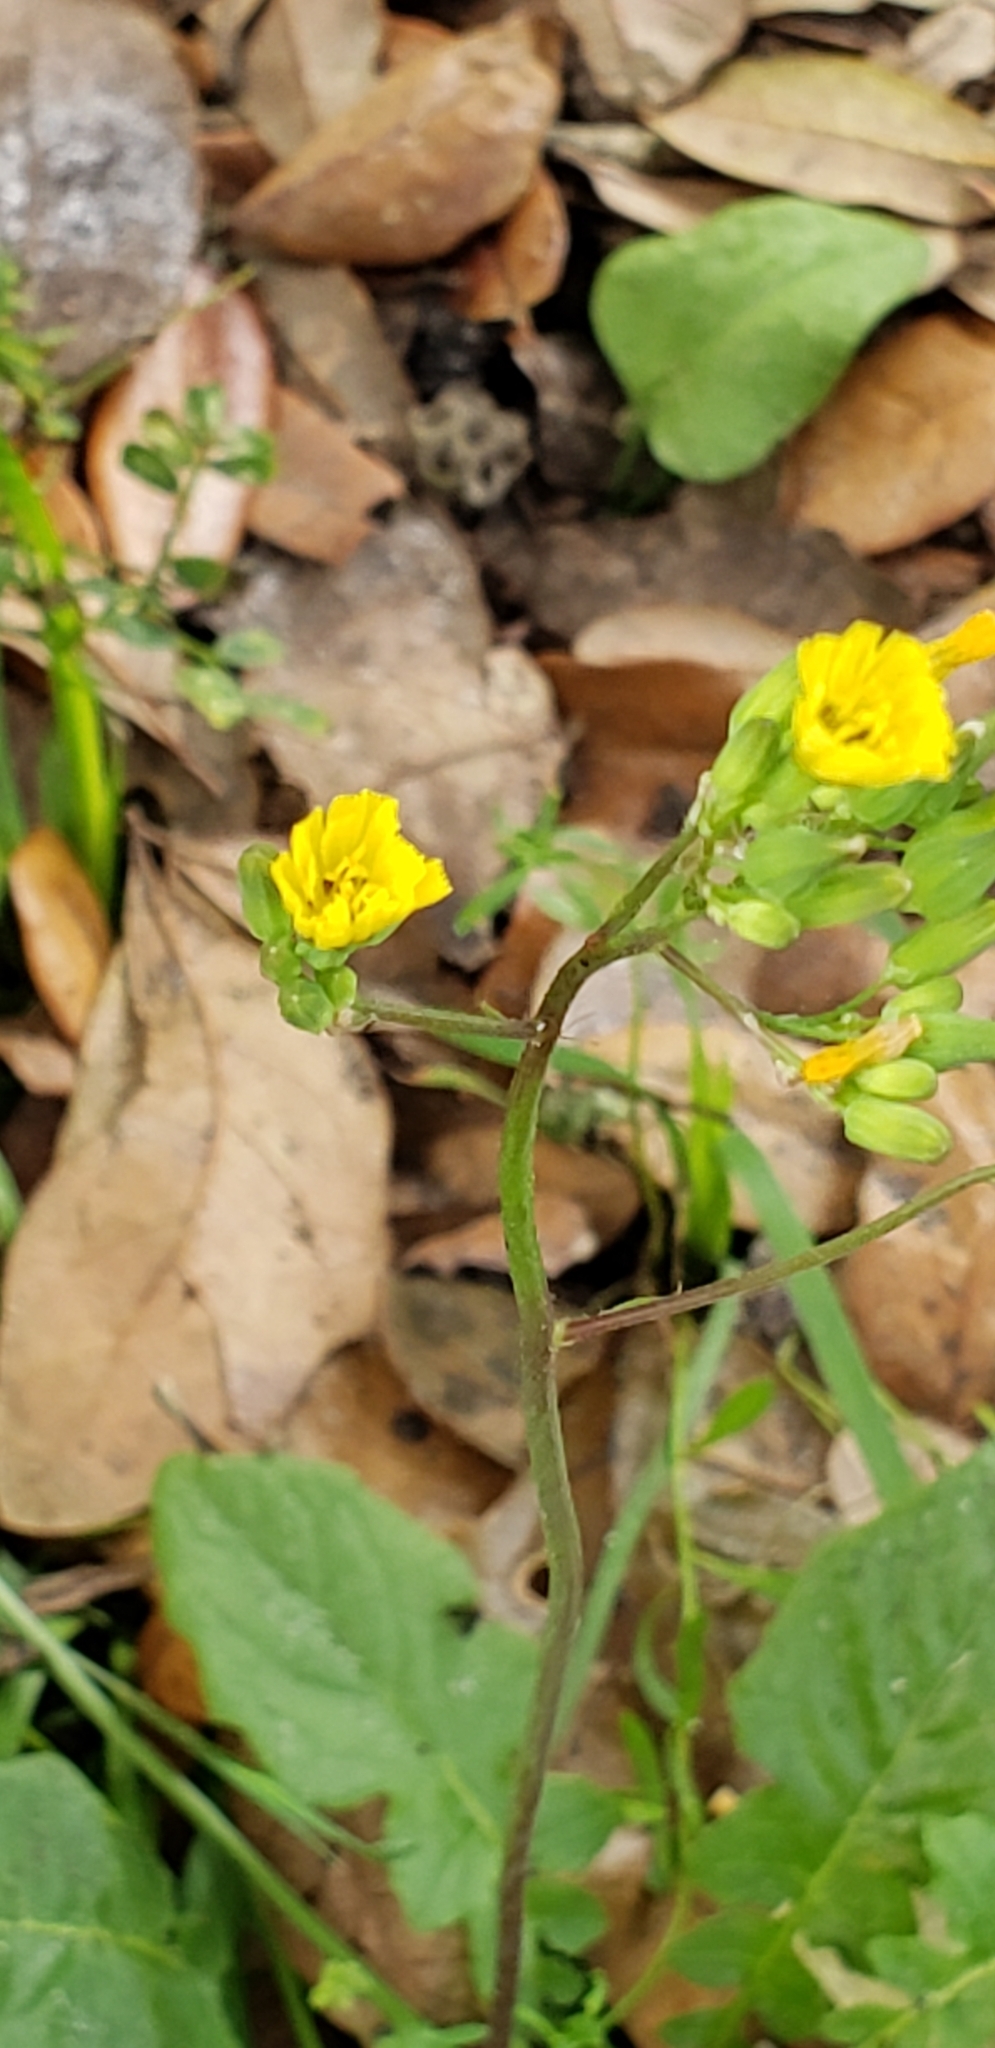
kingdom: Plantae
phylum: Tracheophyta
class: Magnoliopsida
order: Asterales
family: Asteraceae
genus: Youngia
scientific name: Youngia japonica
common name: Oriental false hawksbeard
